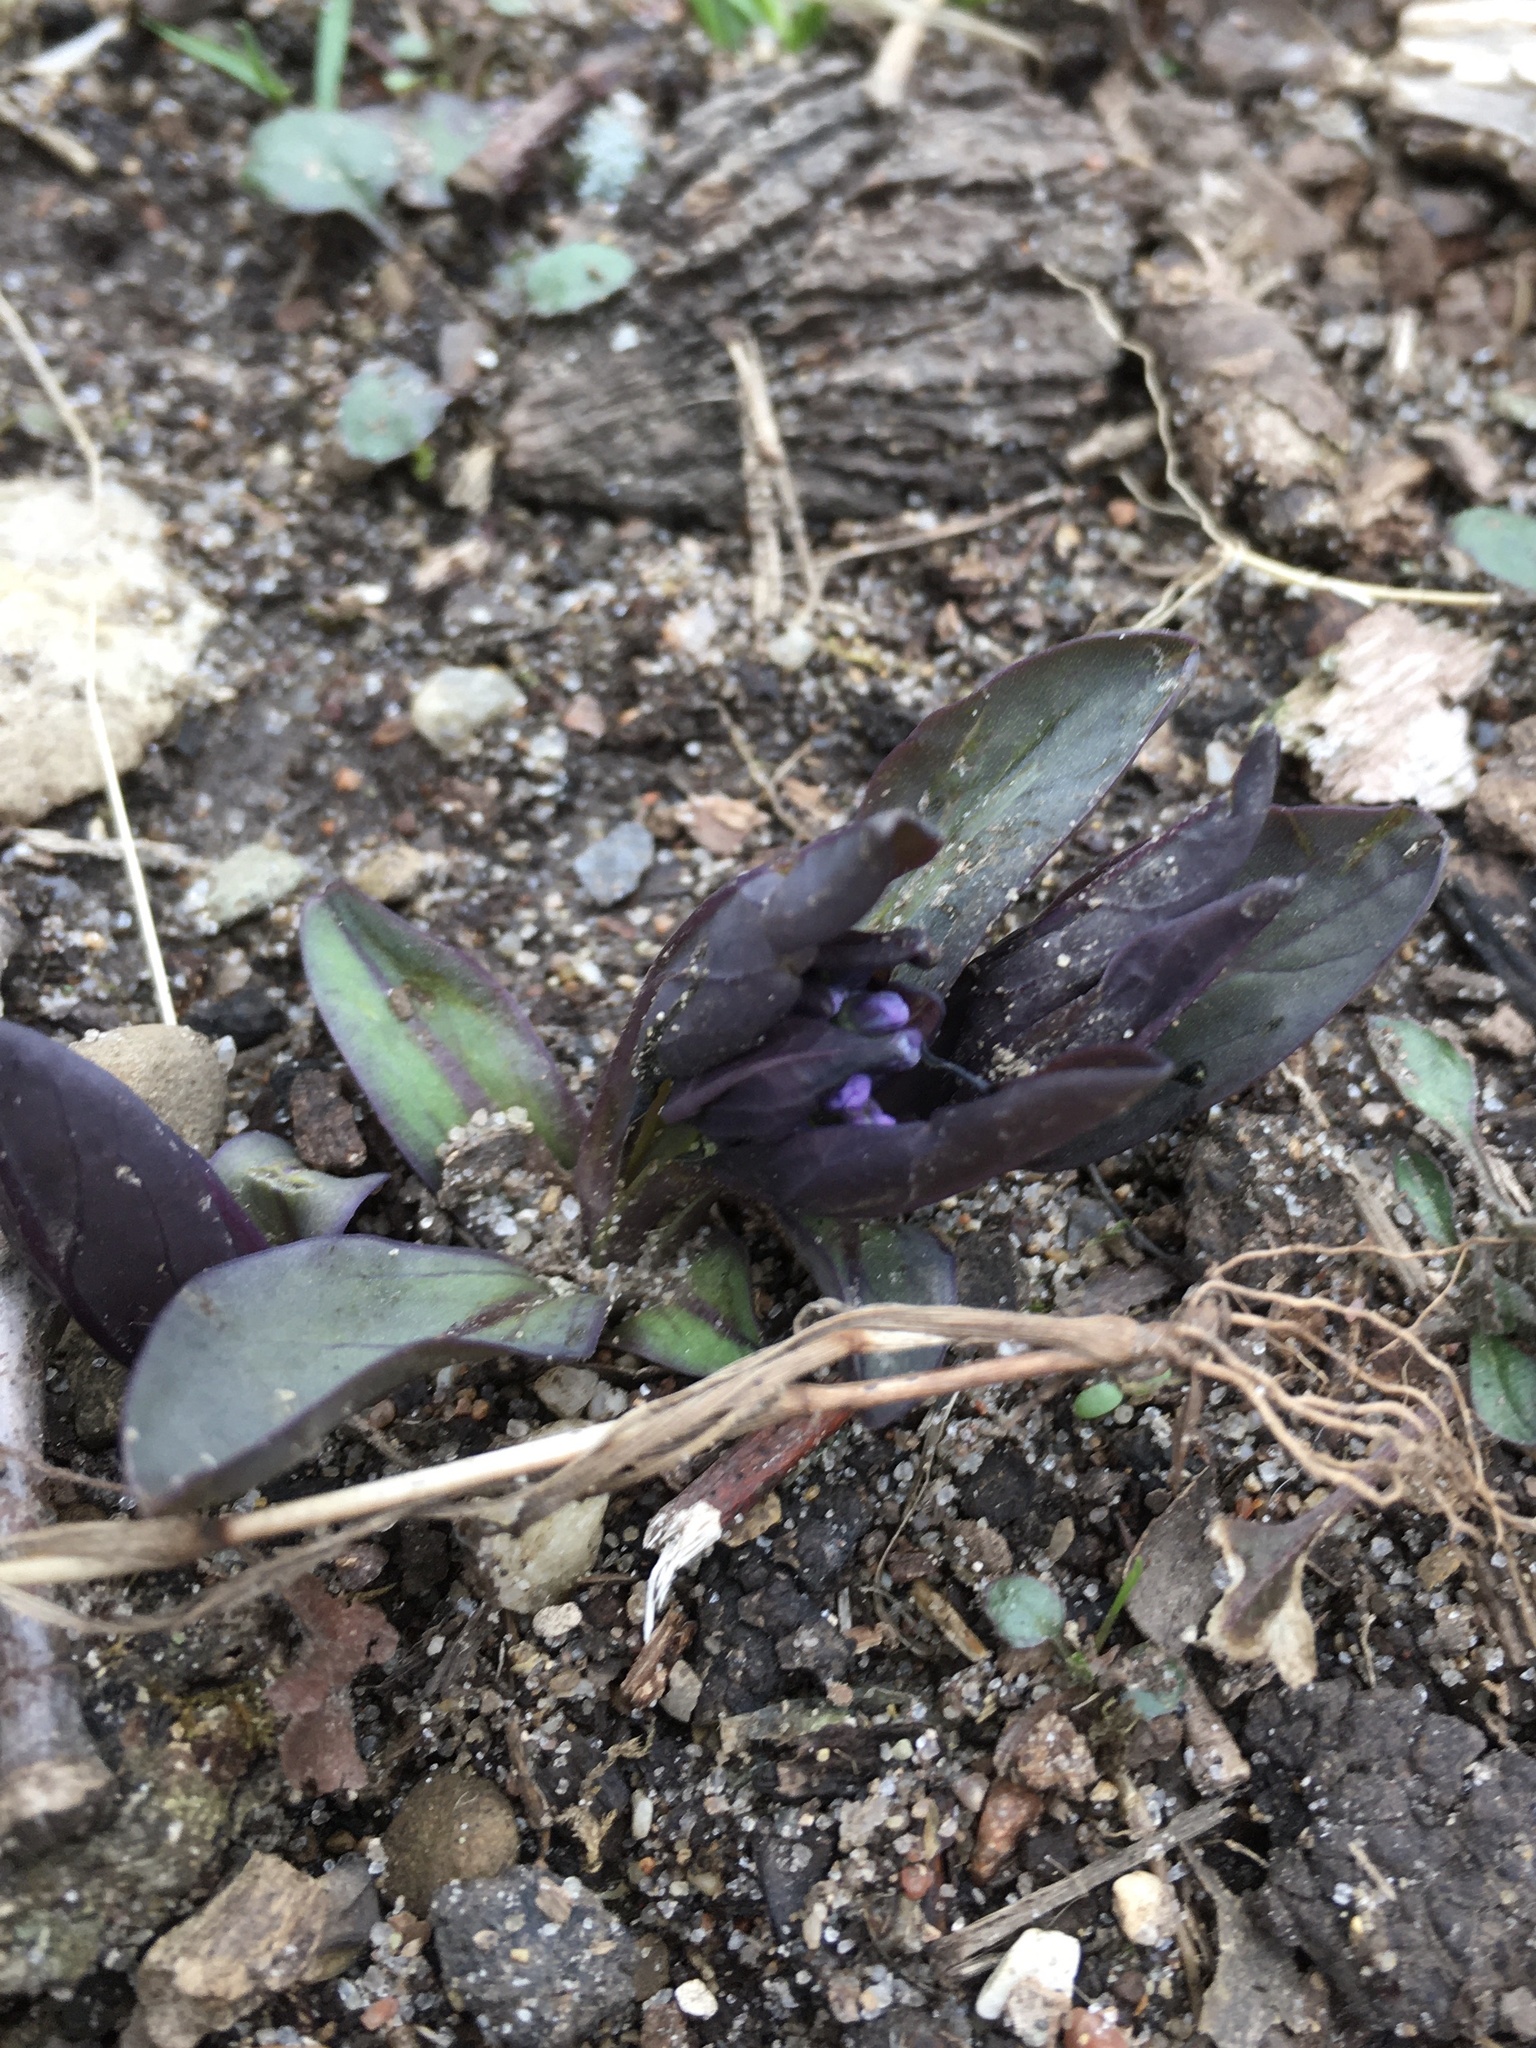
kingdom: Plantae
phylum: Tracheophyta
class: Magnoliopsida
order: Boraginales
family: Boraginaceae
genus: Mertensia
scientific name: Mertensia virginica
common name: Virginia bluebells
